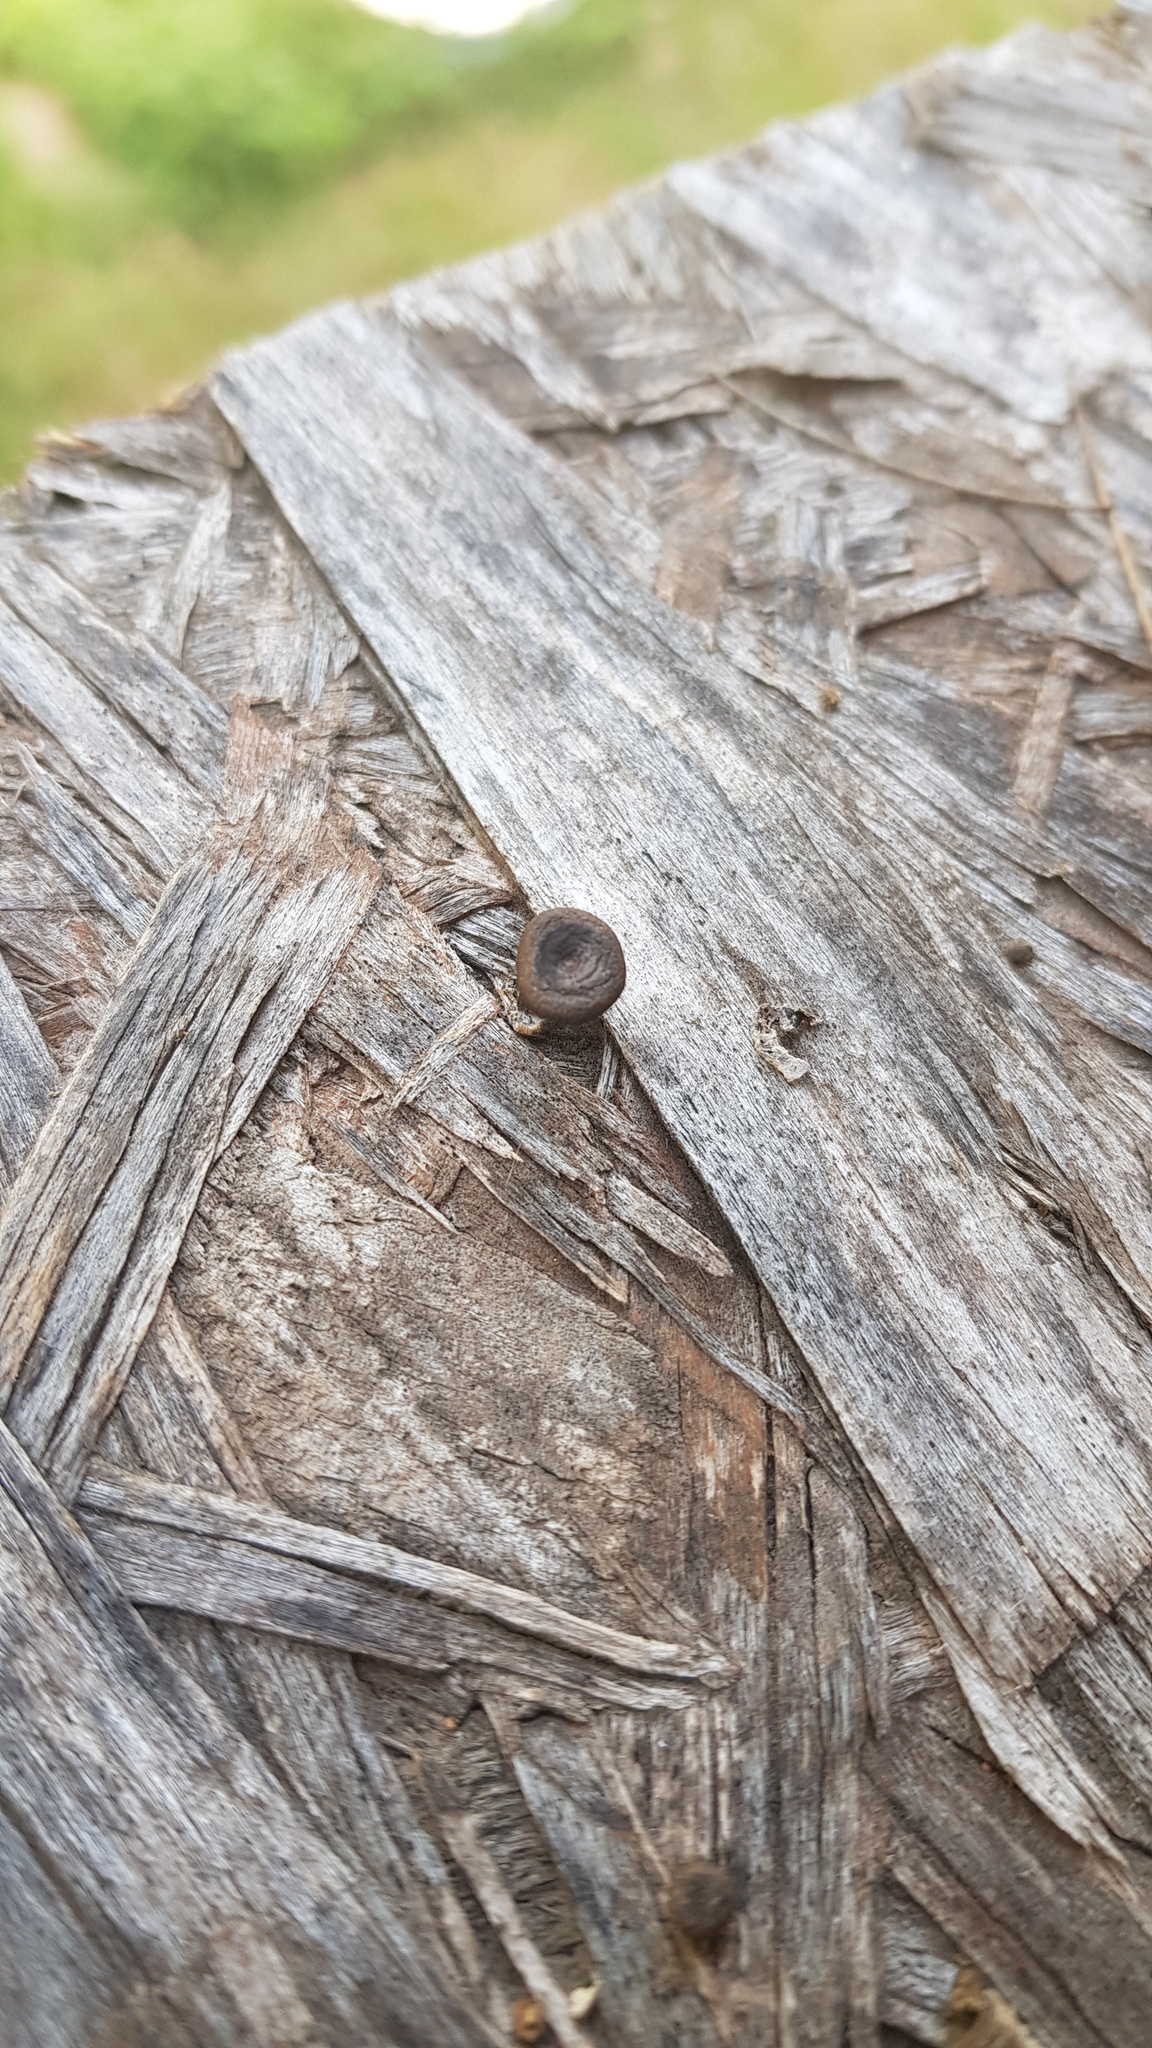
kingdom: Fungi
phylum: Basidiomycota
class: Agaricomycetes
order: Polyporales
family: Polyporaceae
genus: Lentinus
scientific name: Lentinus arcularius
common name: Spring polypore
